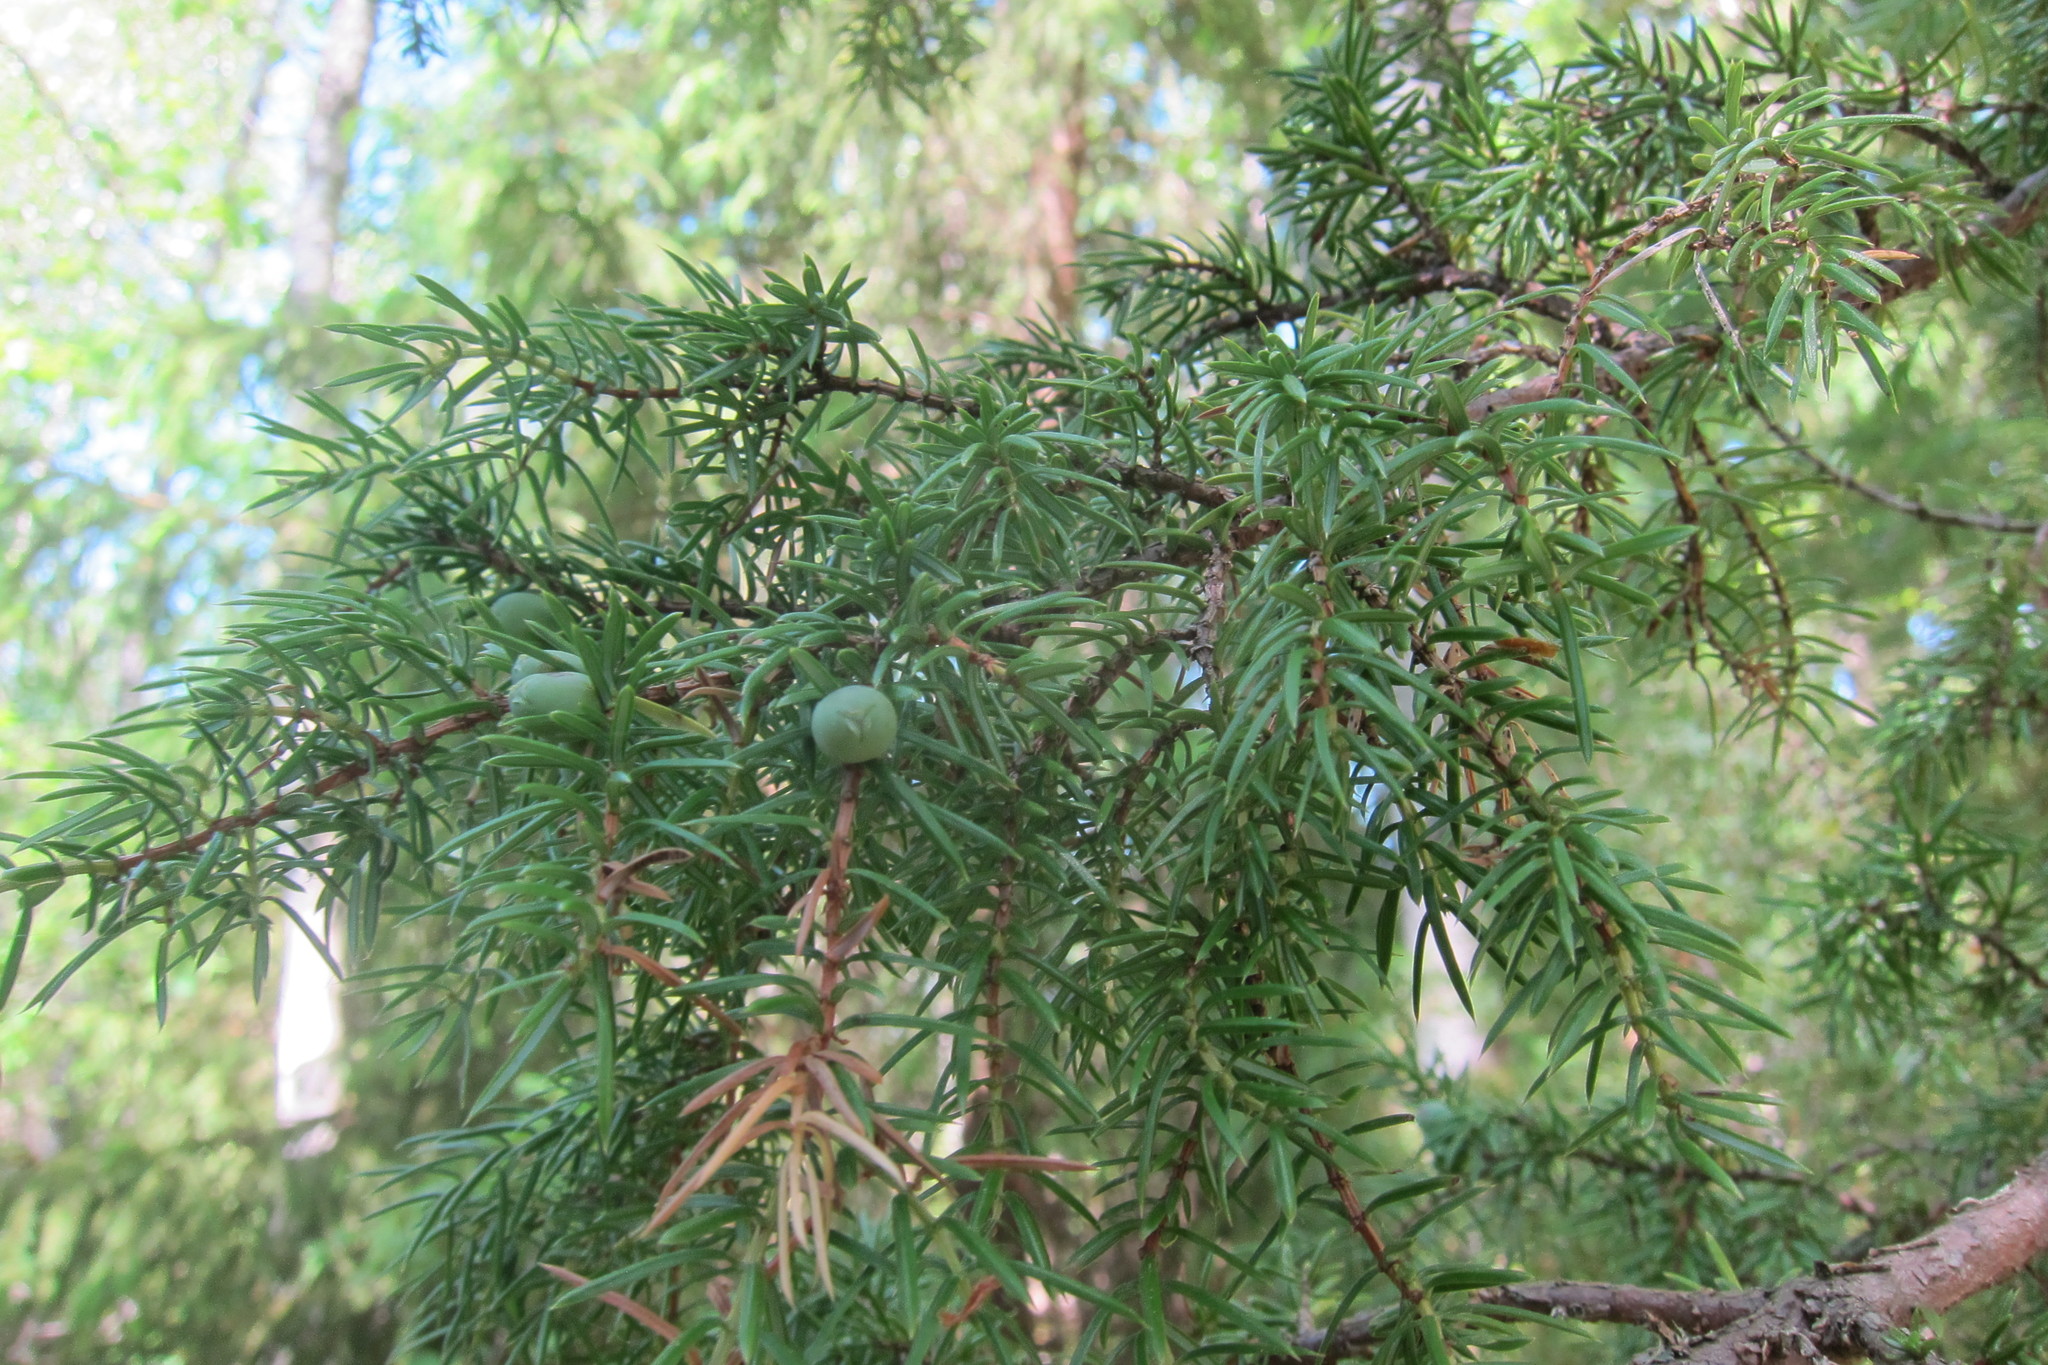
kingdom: Plantae
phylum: Tracheophyta
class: Pinopsida
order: Pinales
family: Cupressaceae
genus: Juniperus
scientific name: Juniperus communis
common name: Common juniper
